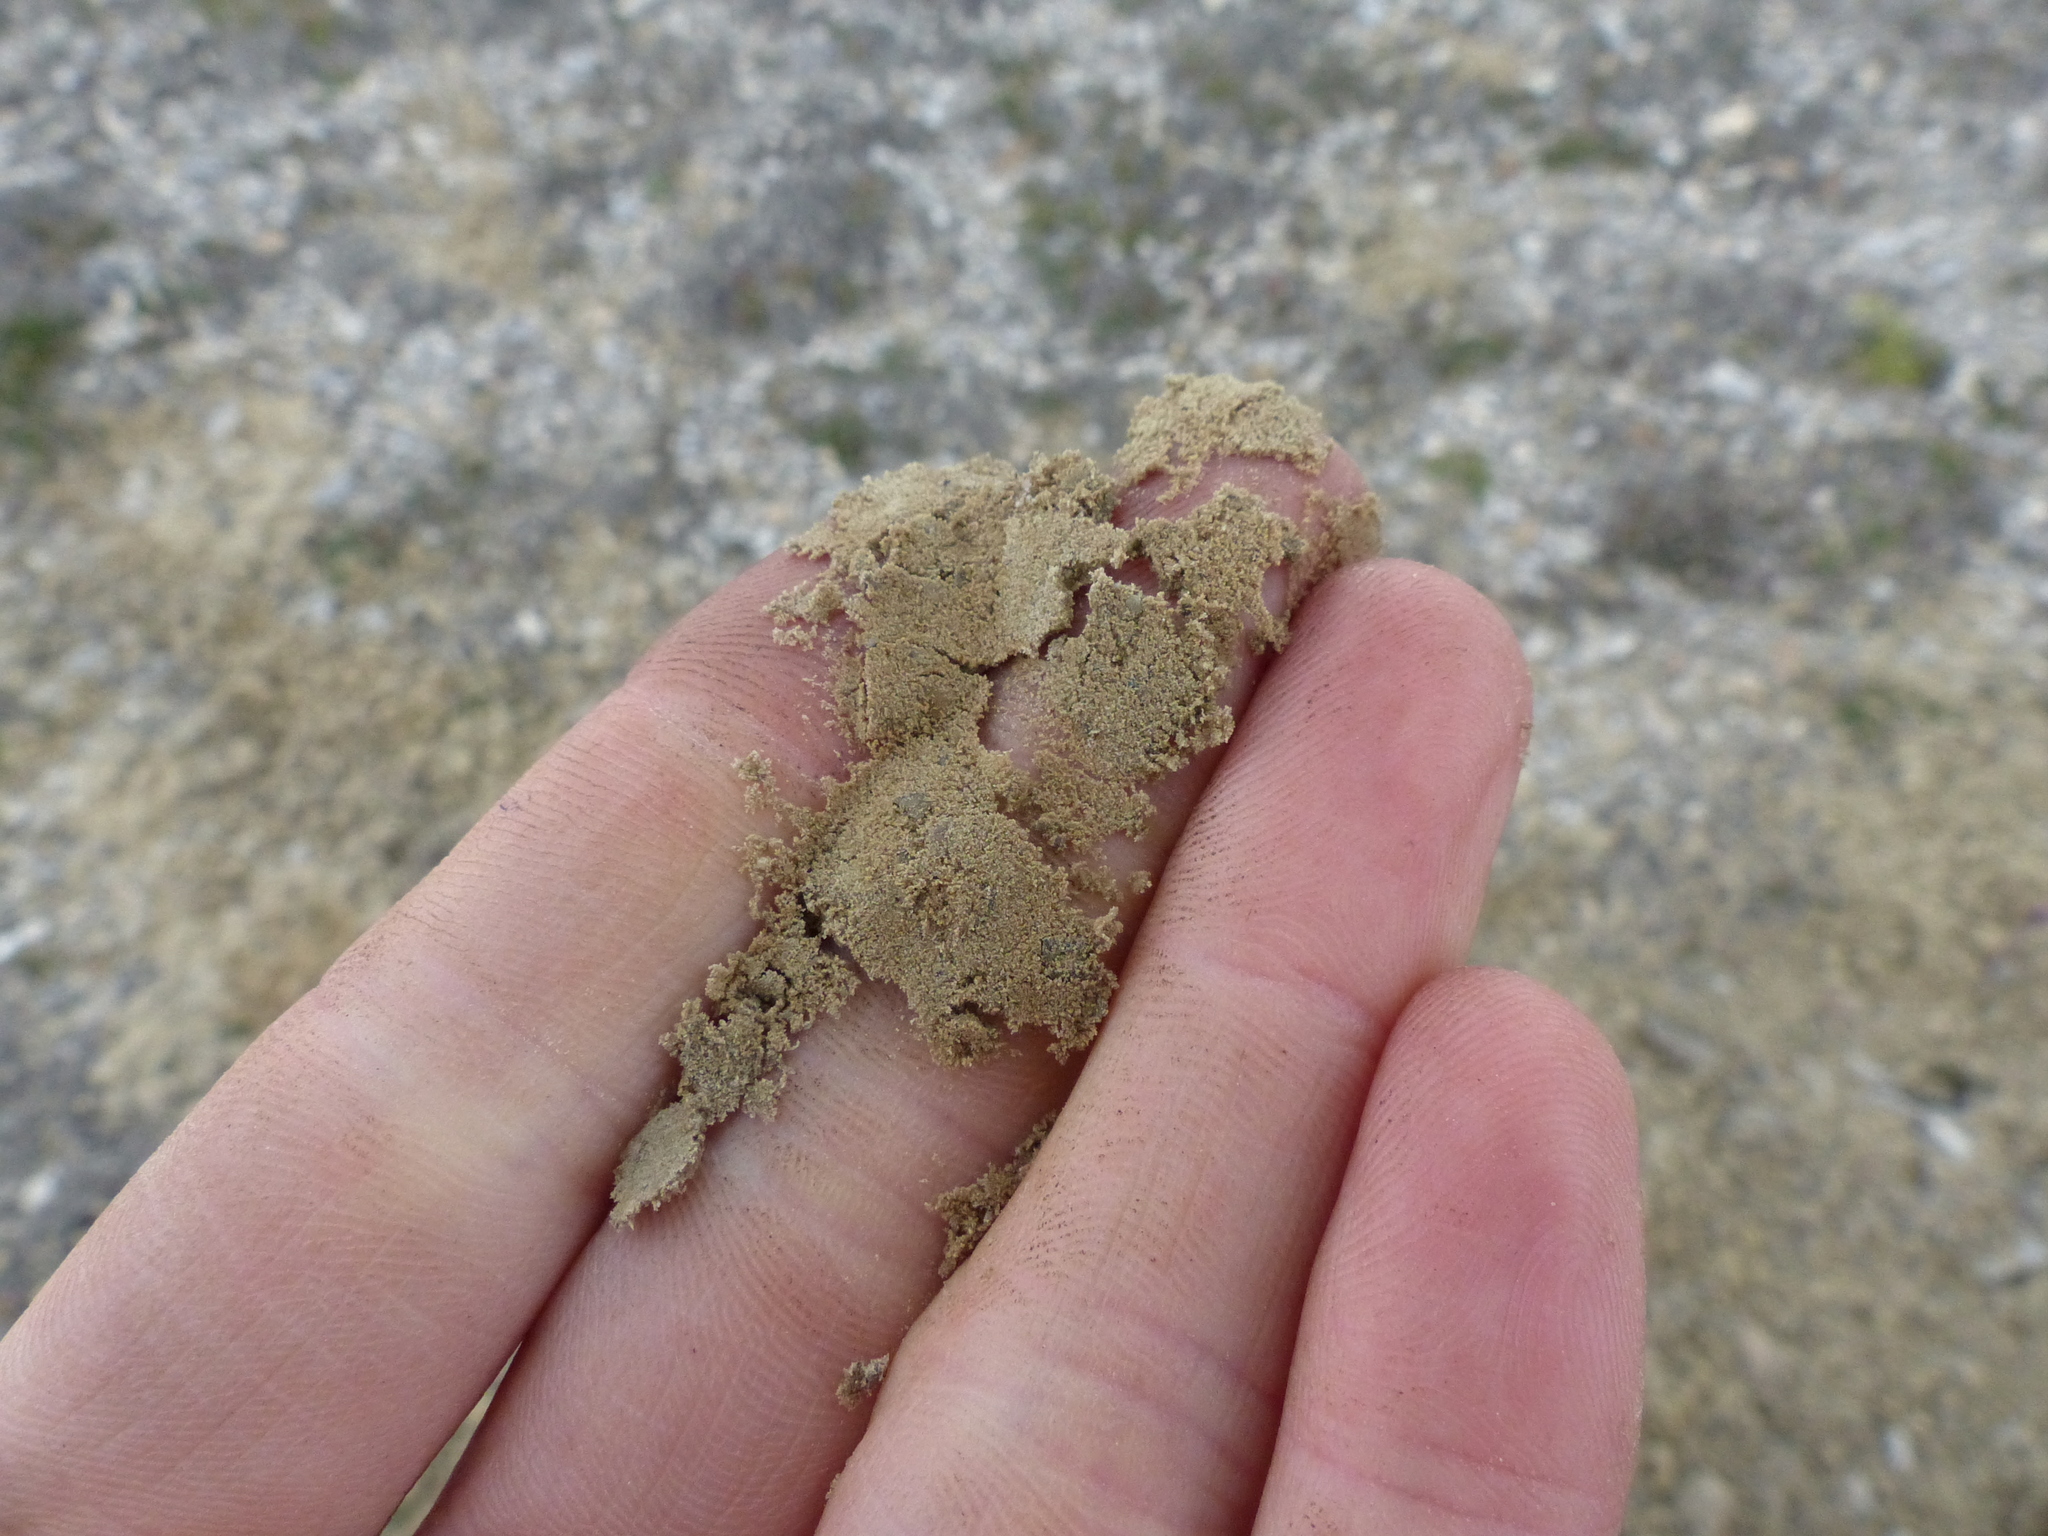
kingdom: Plantae
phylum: Tracheophyta
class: Magnoliopsida
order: Malpighiales
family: Salicaceae
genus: Salix
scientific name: Salix nivalis
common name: Dwarf snow willow
